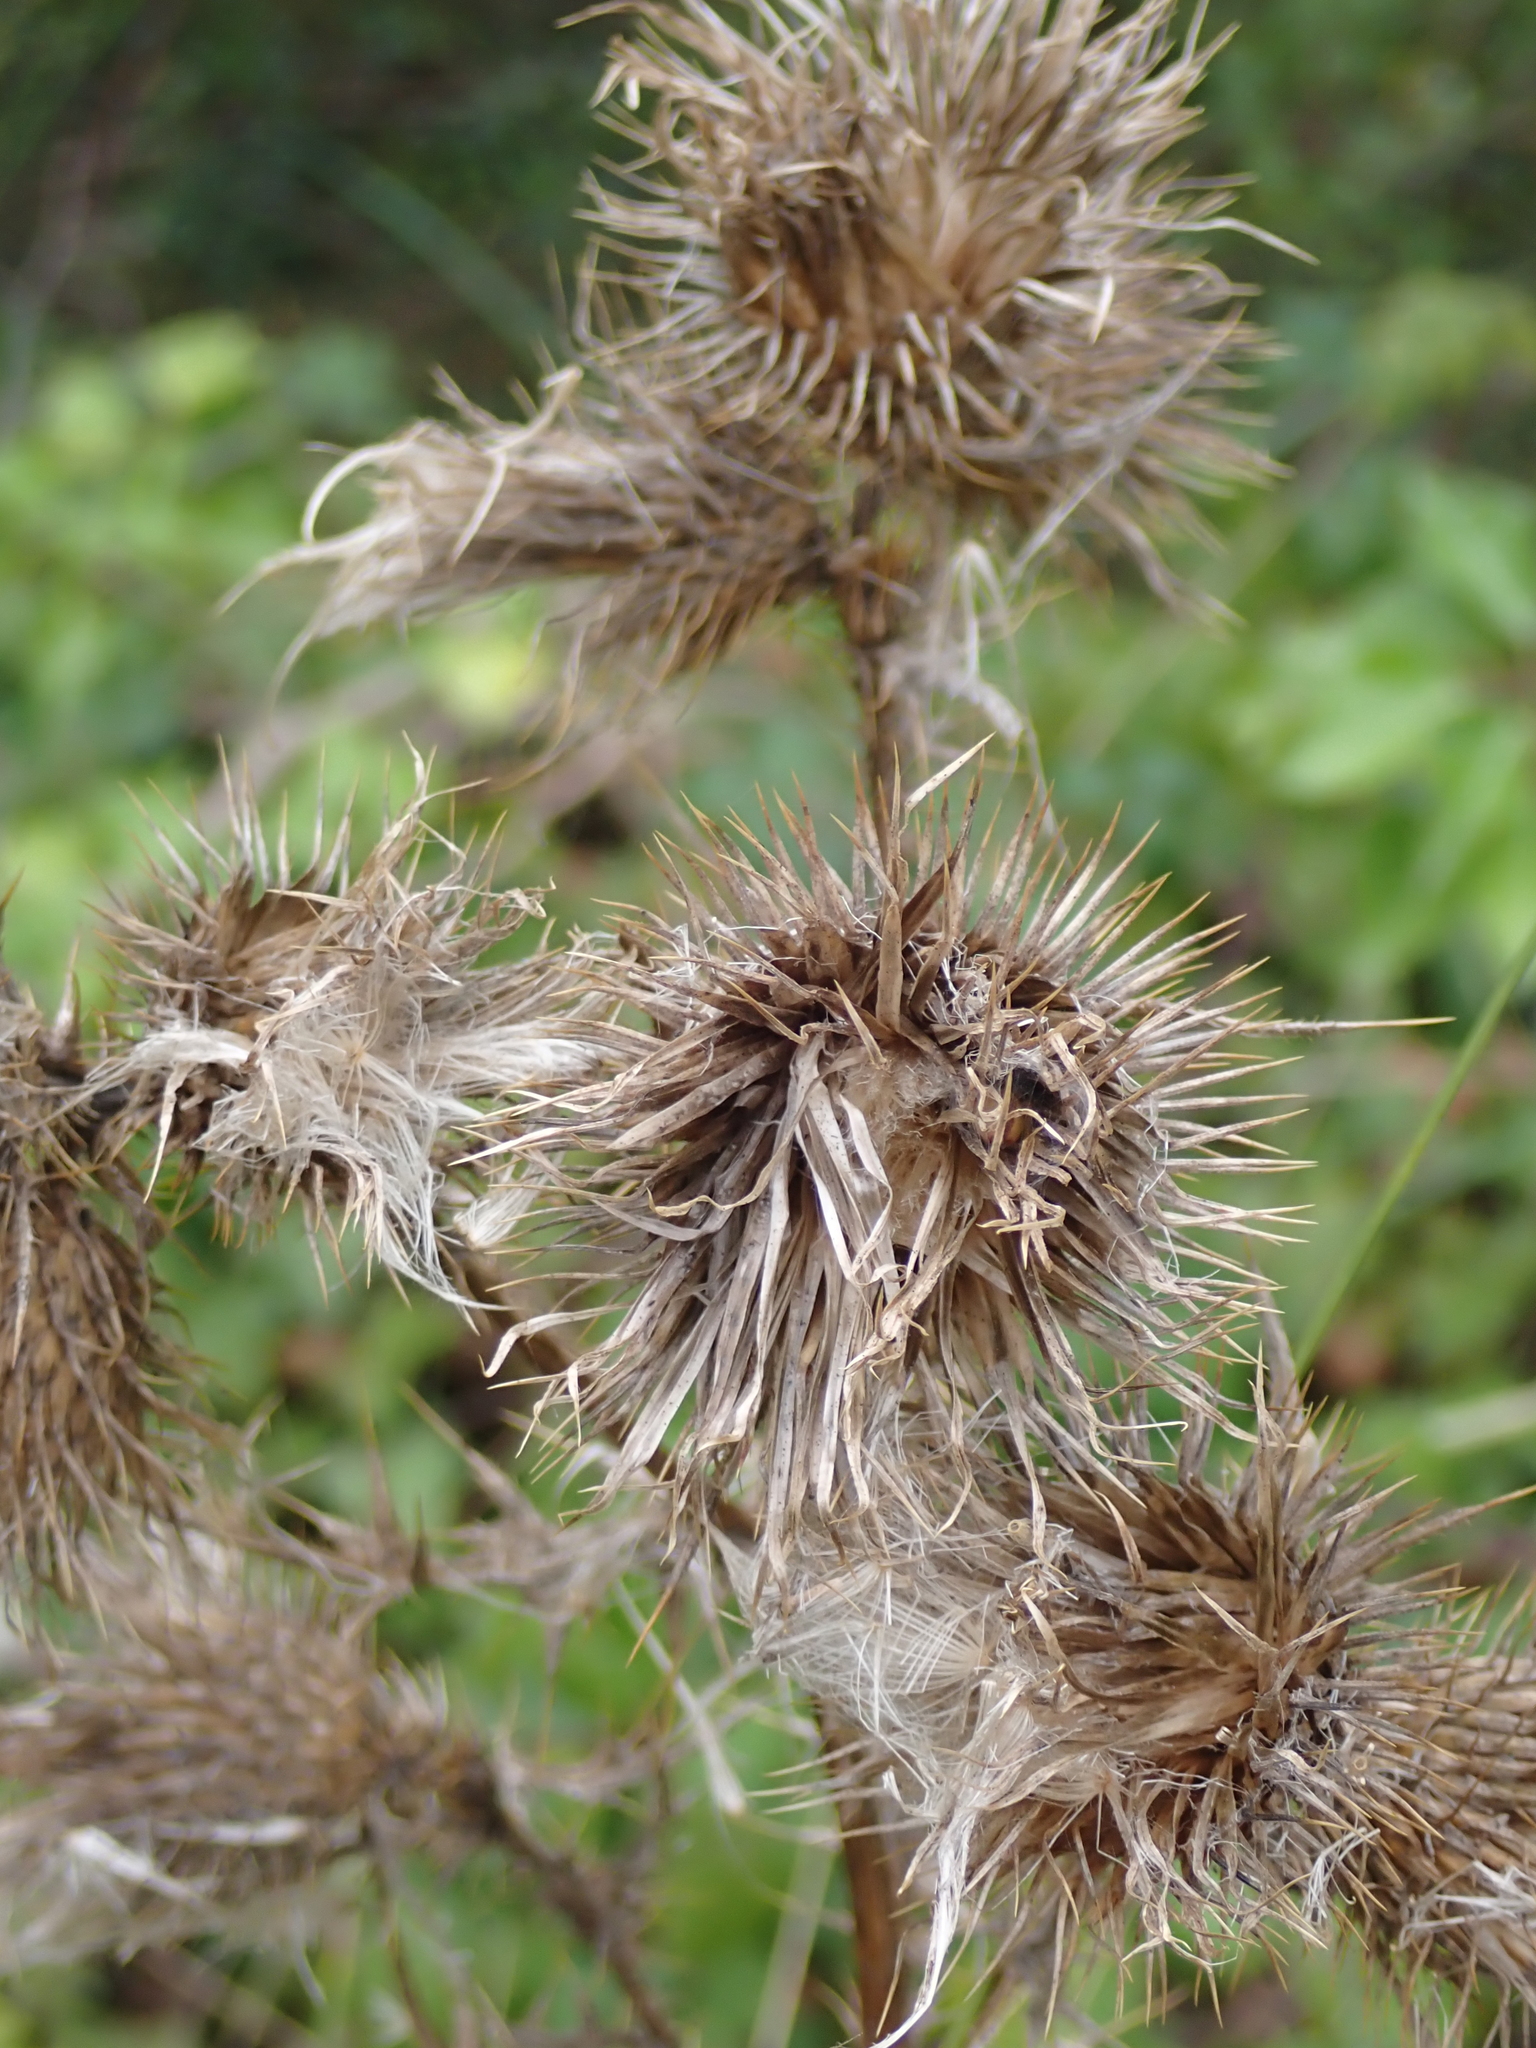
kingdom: Plantae
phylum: Tracheophyta
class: Magnoliopsida
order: Asterales
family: Asteraceae
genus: Cirsium
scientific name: Cirsium vulgare
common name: Bull thistle
